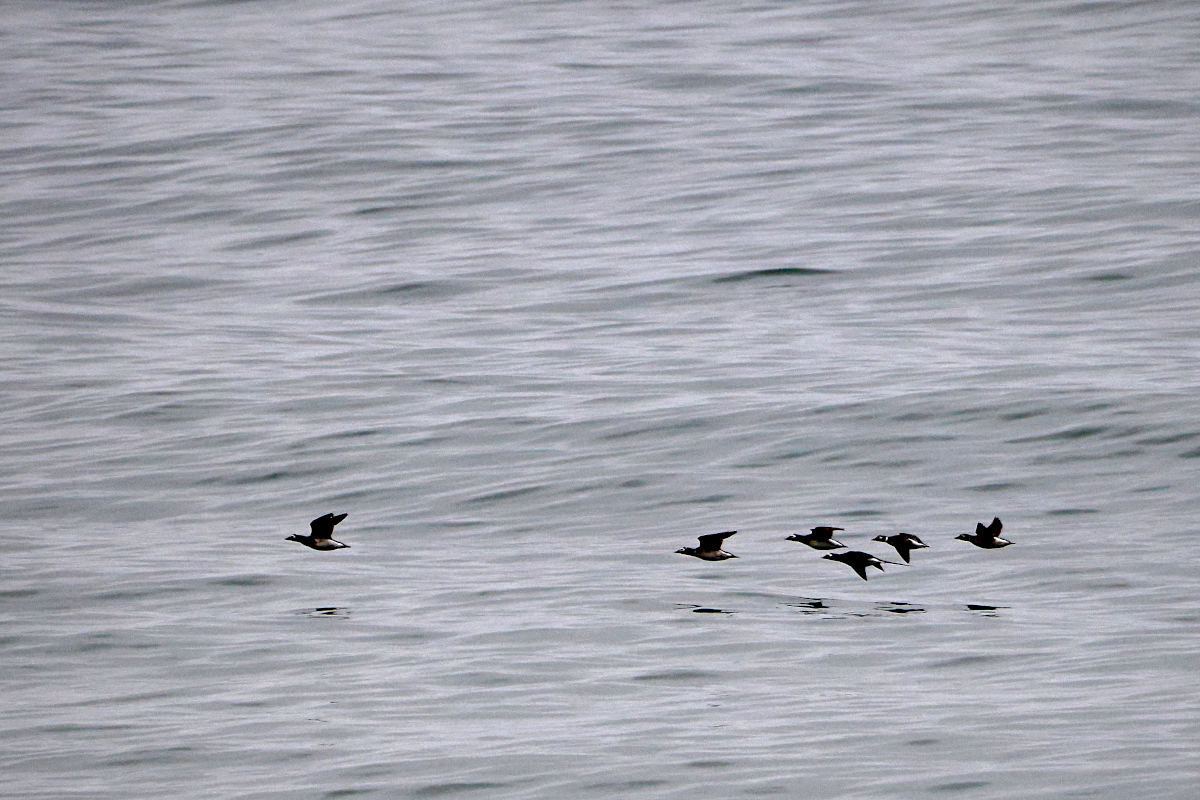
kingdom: Animalia
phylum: Chordata
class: Aves
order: Anseriformes
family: Anatidae
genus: Clangula
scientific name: Clangula hyemalis
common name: Long-tailed duck
